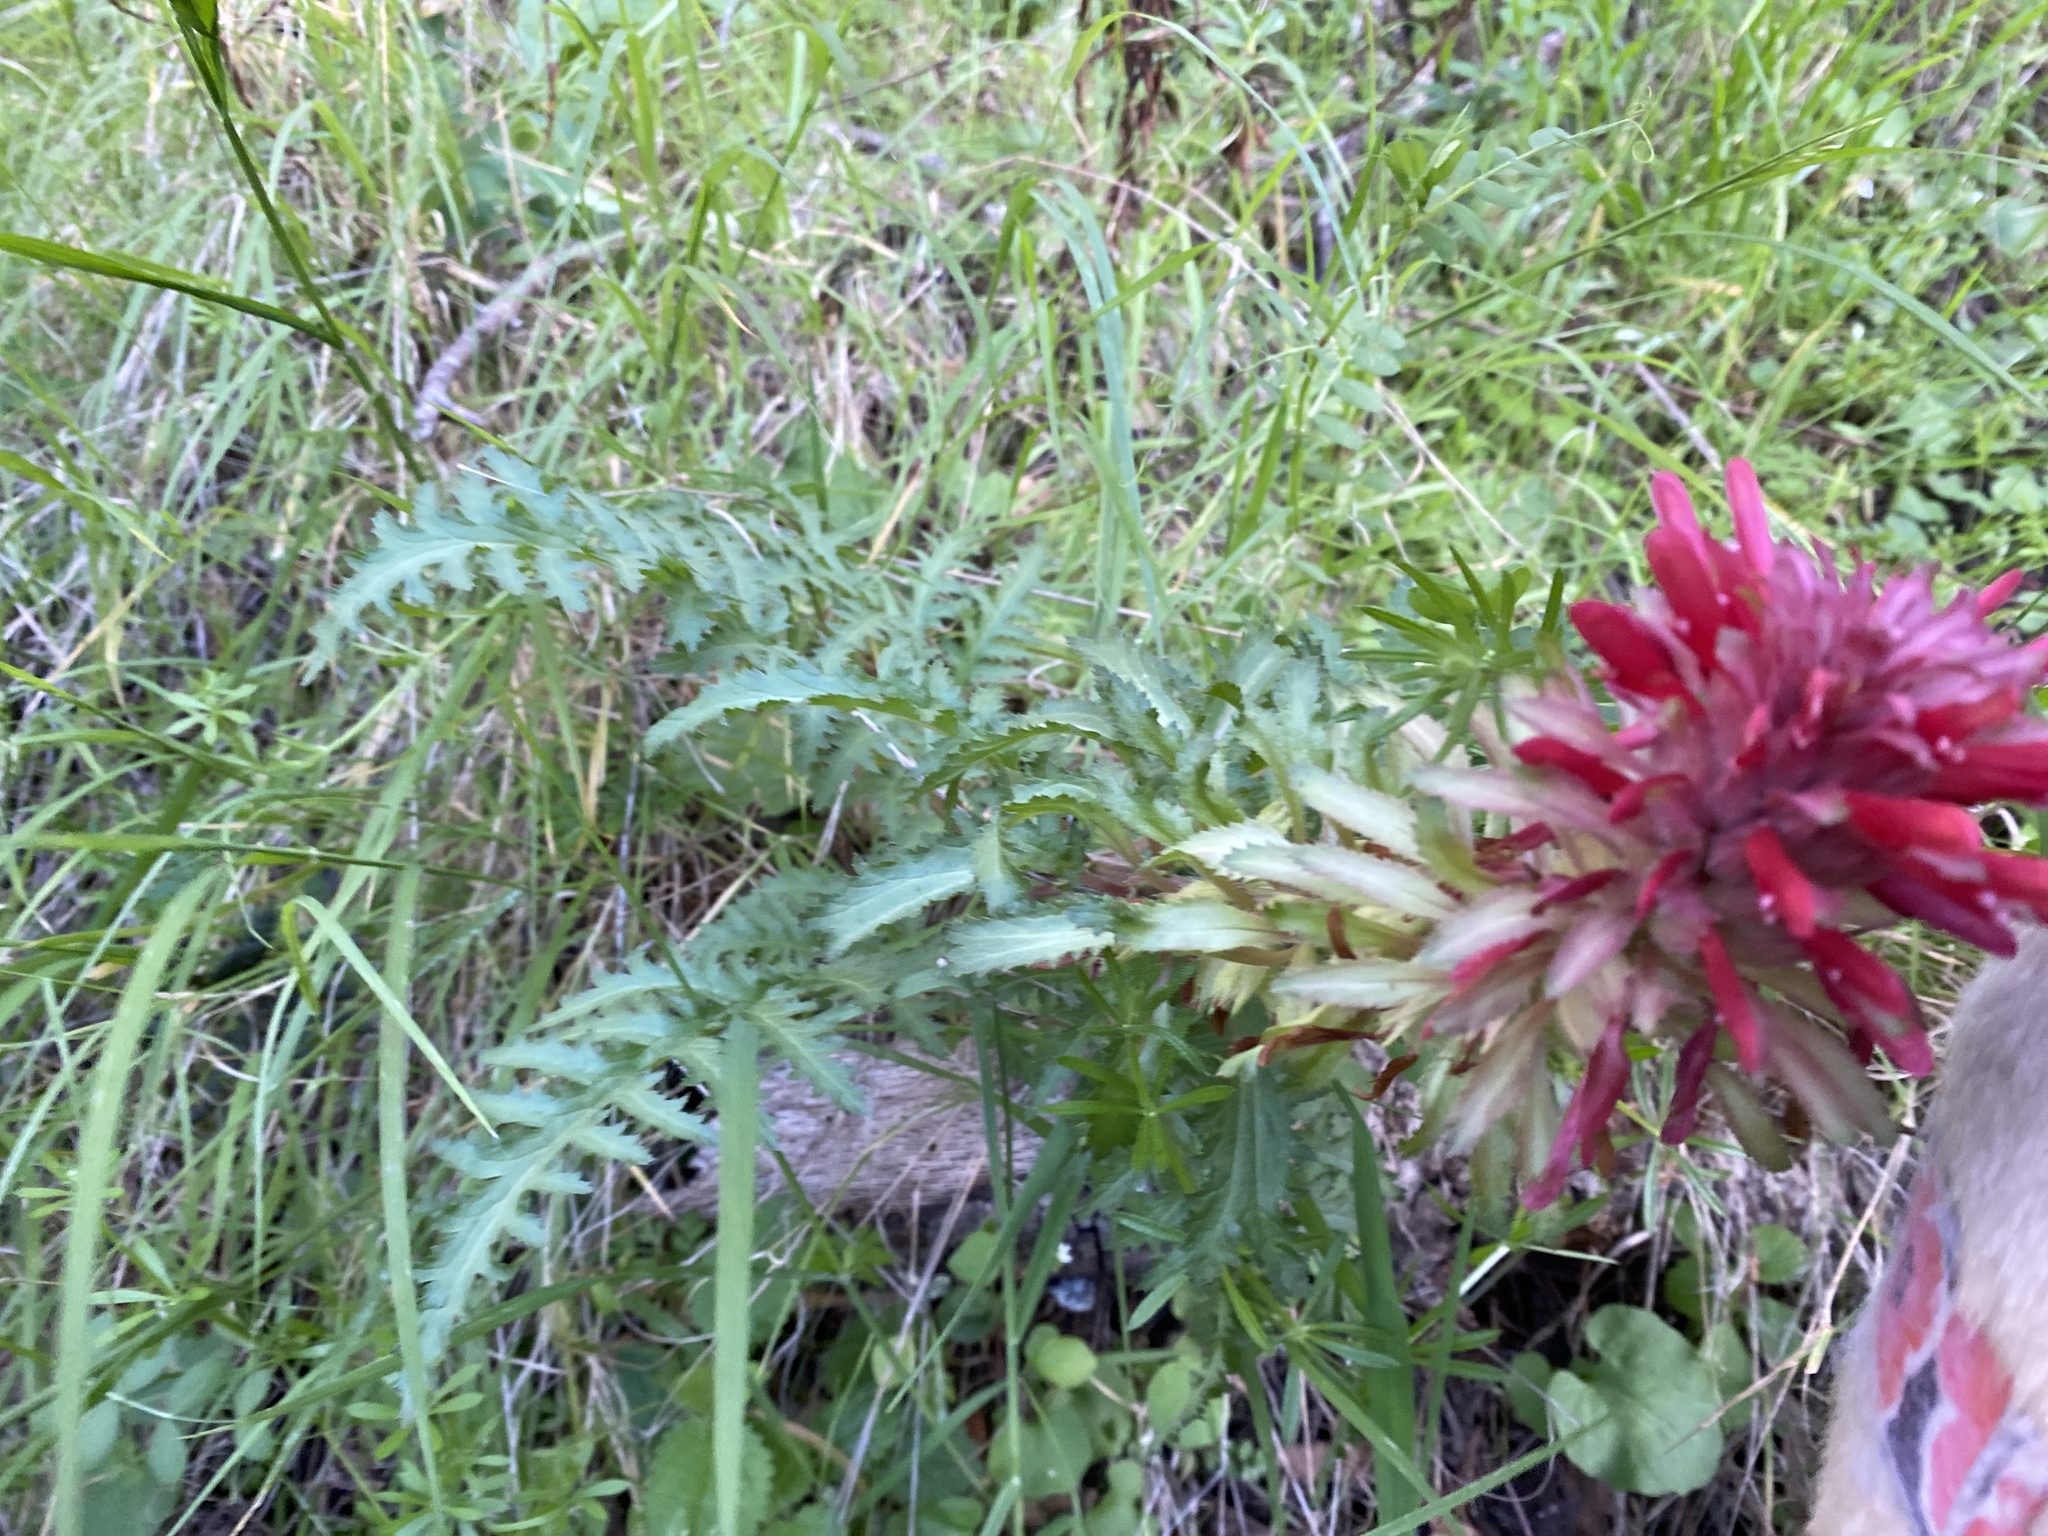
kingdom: Plantae
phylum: Tracheophyta
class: Magnoliopsida
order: Lamiales
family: Orobanchaceae
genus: Pedicularis
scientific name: Pedicularis densiflora
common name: Indian warrior
